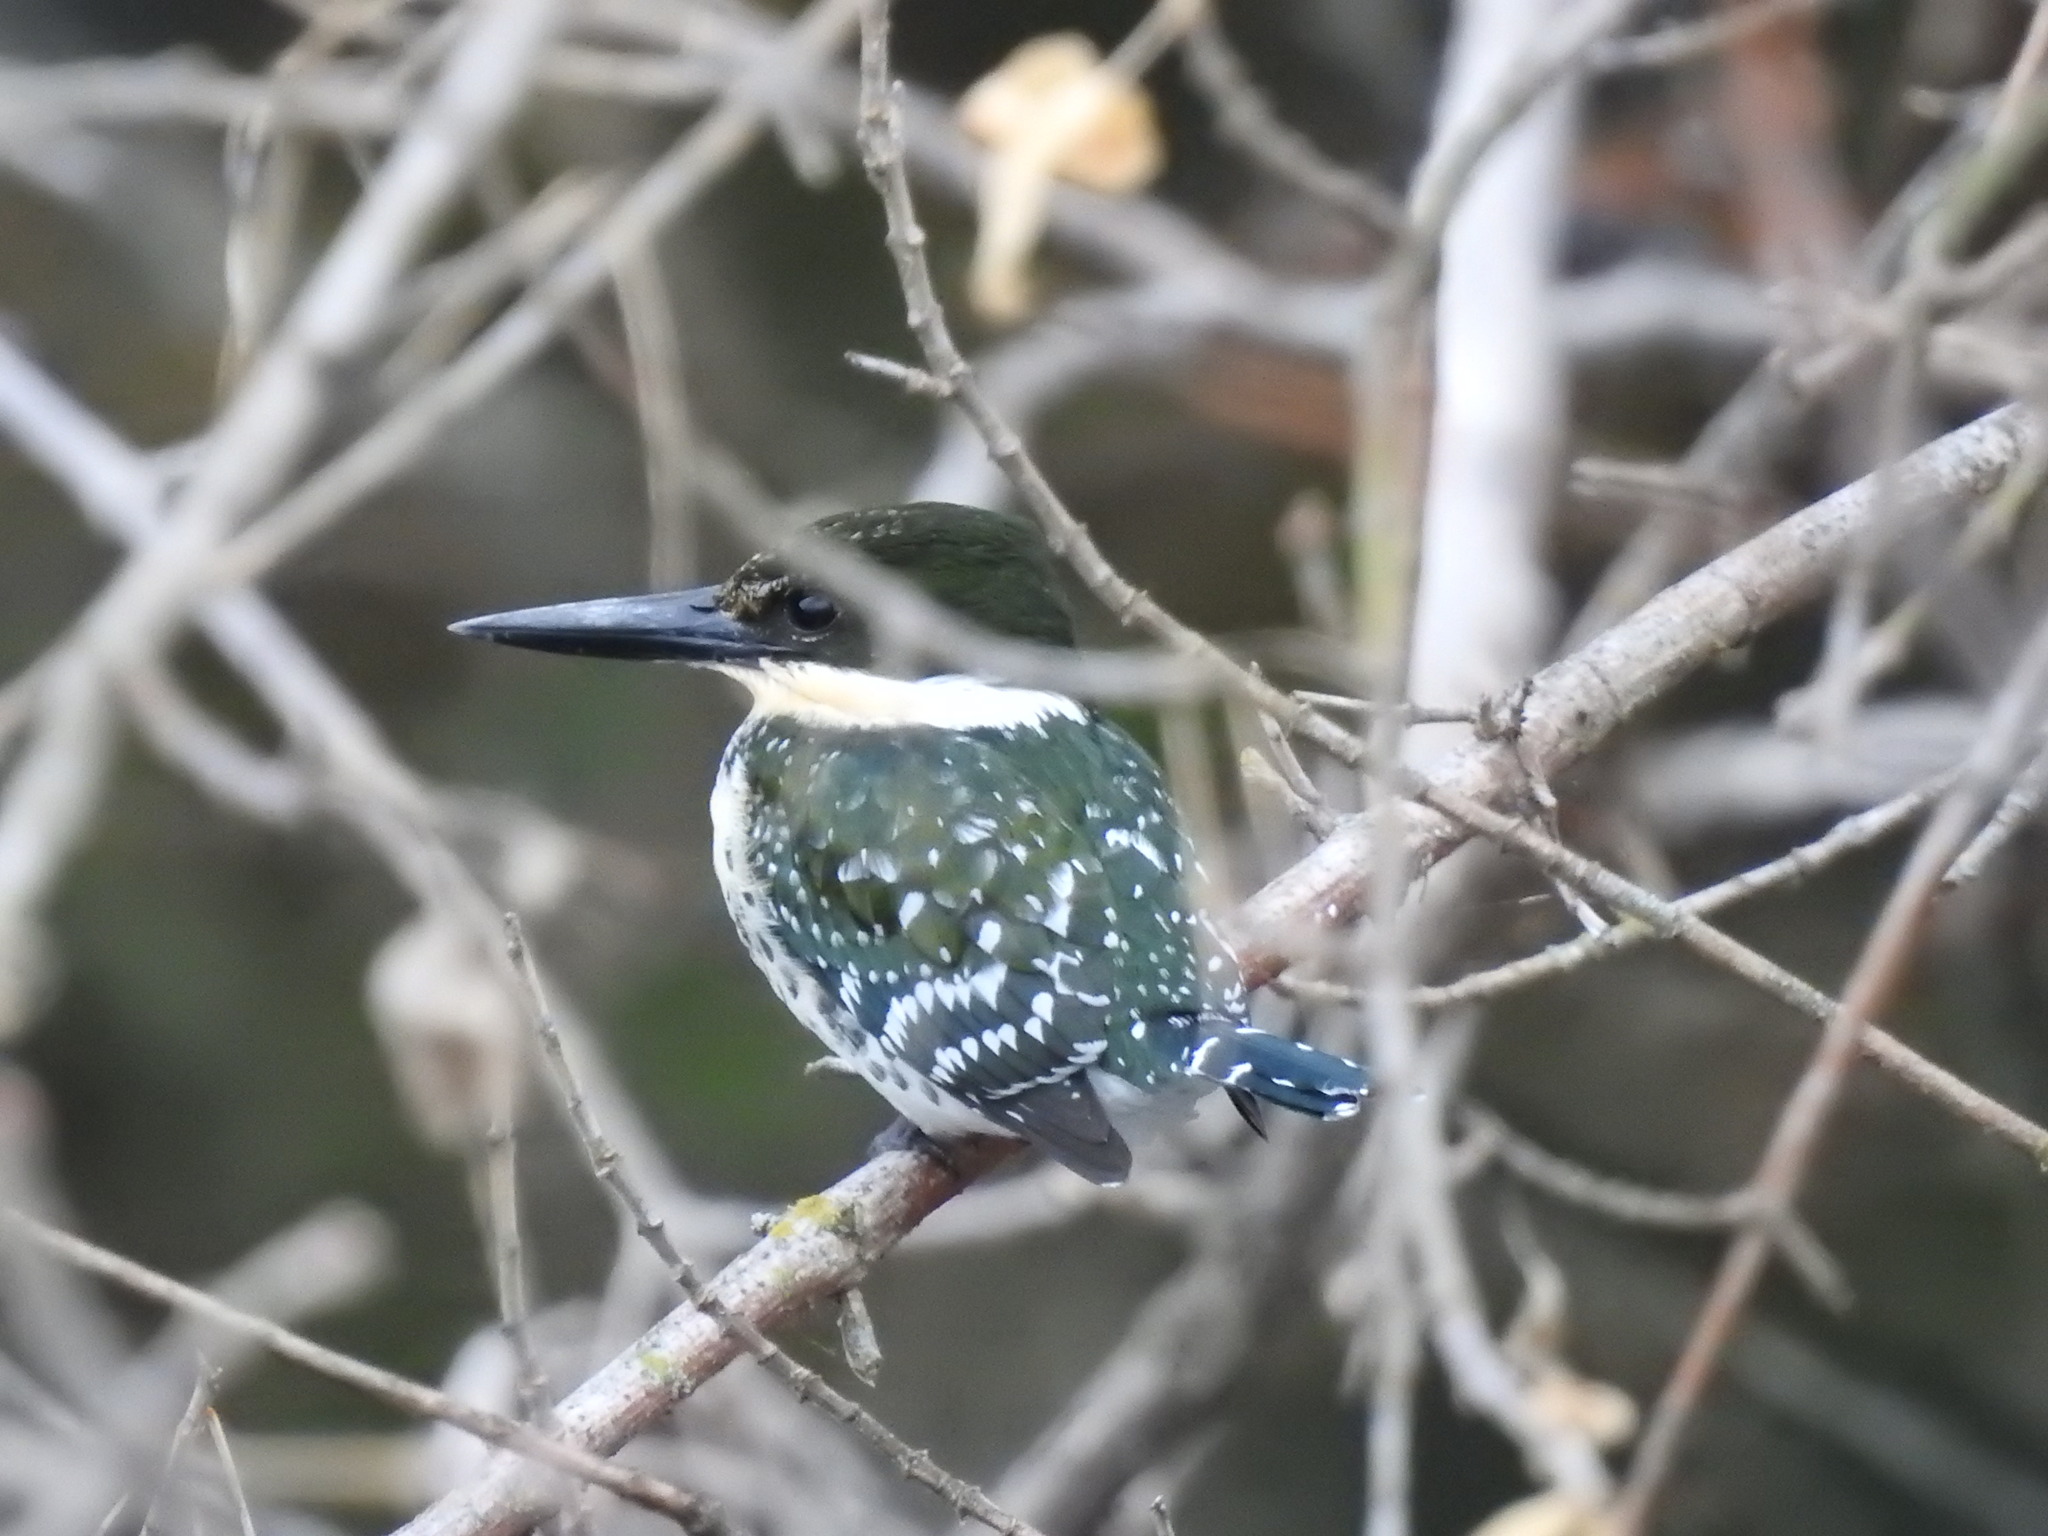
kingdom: Animalia
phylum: Chordata
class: Aves
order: Coraciiformes
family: Alcedinidae
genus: Chloroceryle
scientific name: Chloroceryle americana
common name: Green kingfisher
